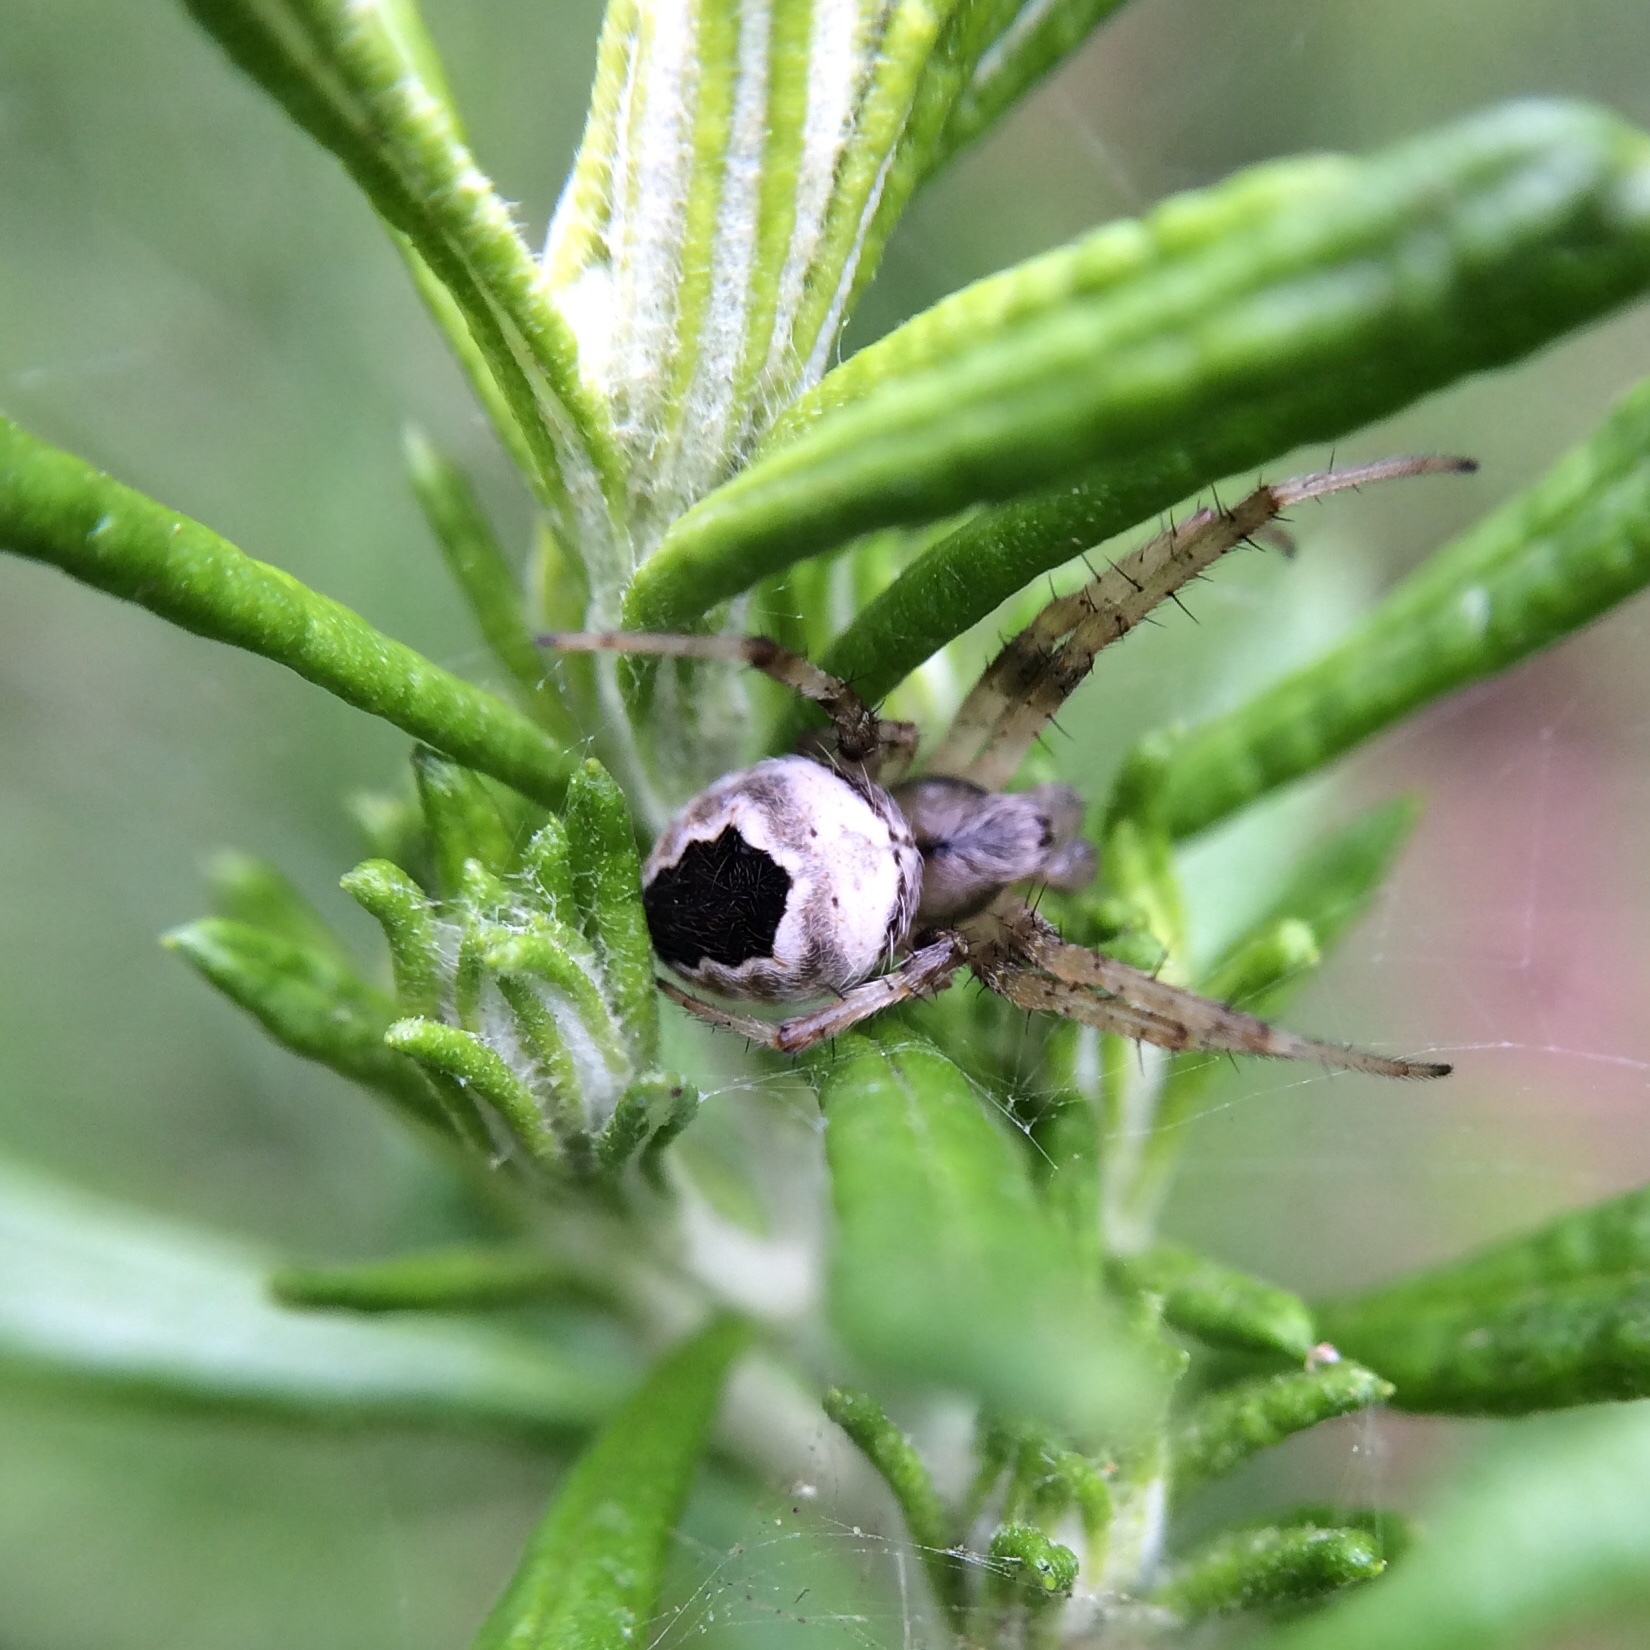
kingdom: Animalia
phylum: Arthropoda
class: Arachnida
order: Araneae
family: Araneidae
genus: Araneus
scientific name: Araneus nigroquadratus
